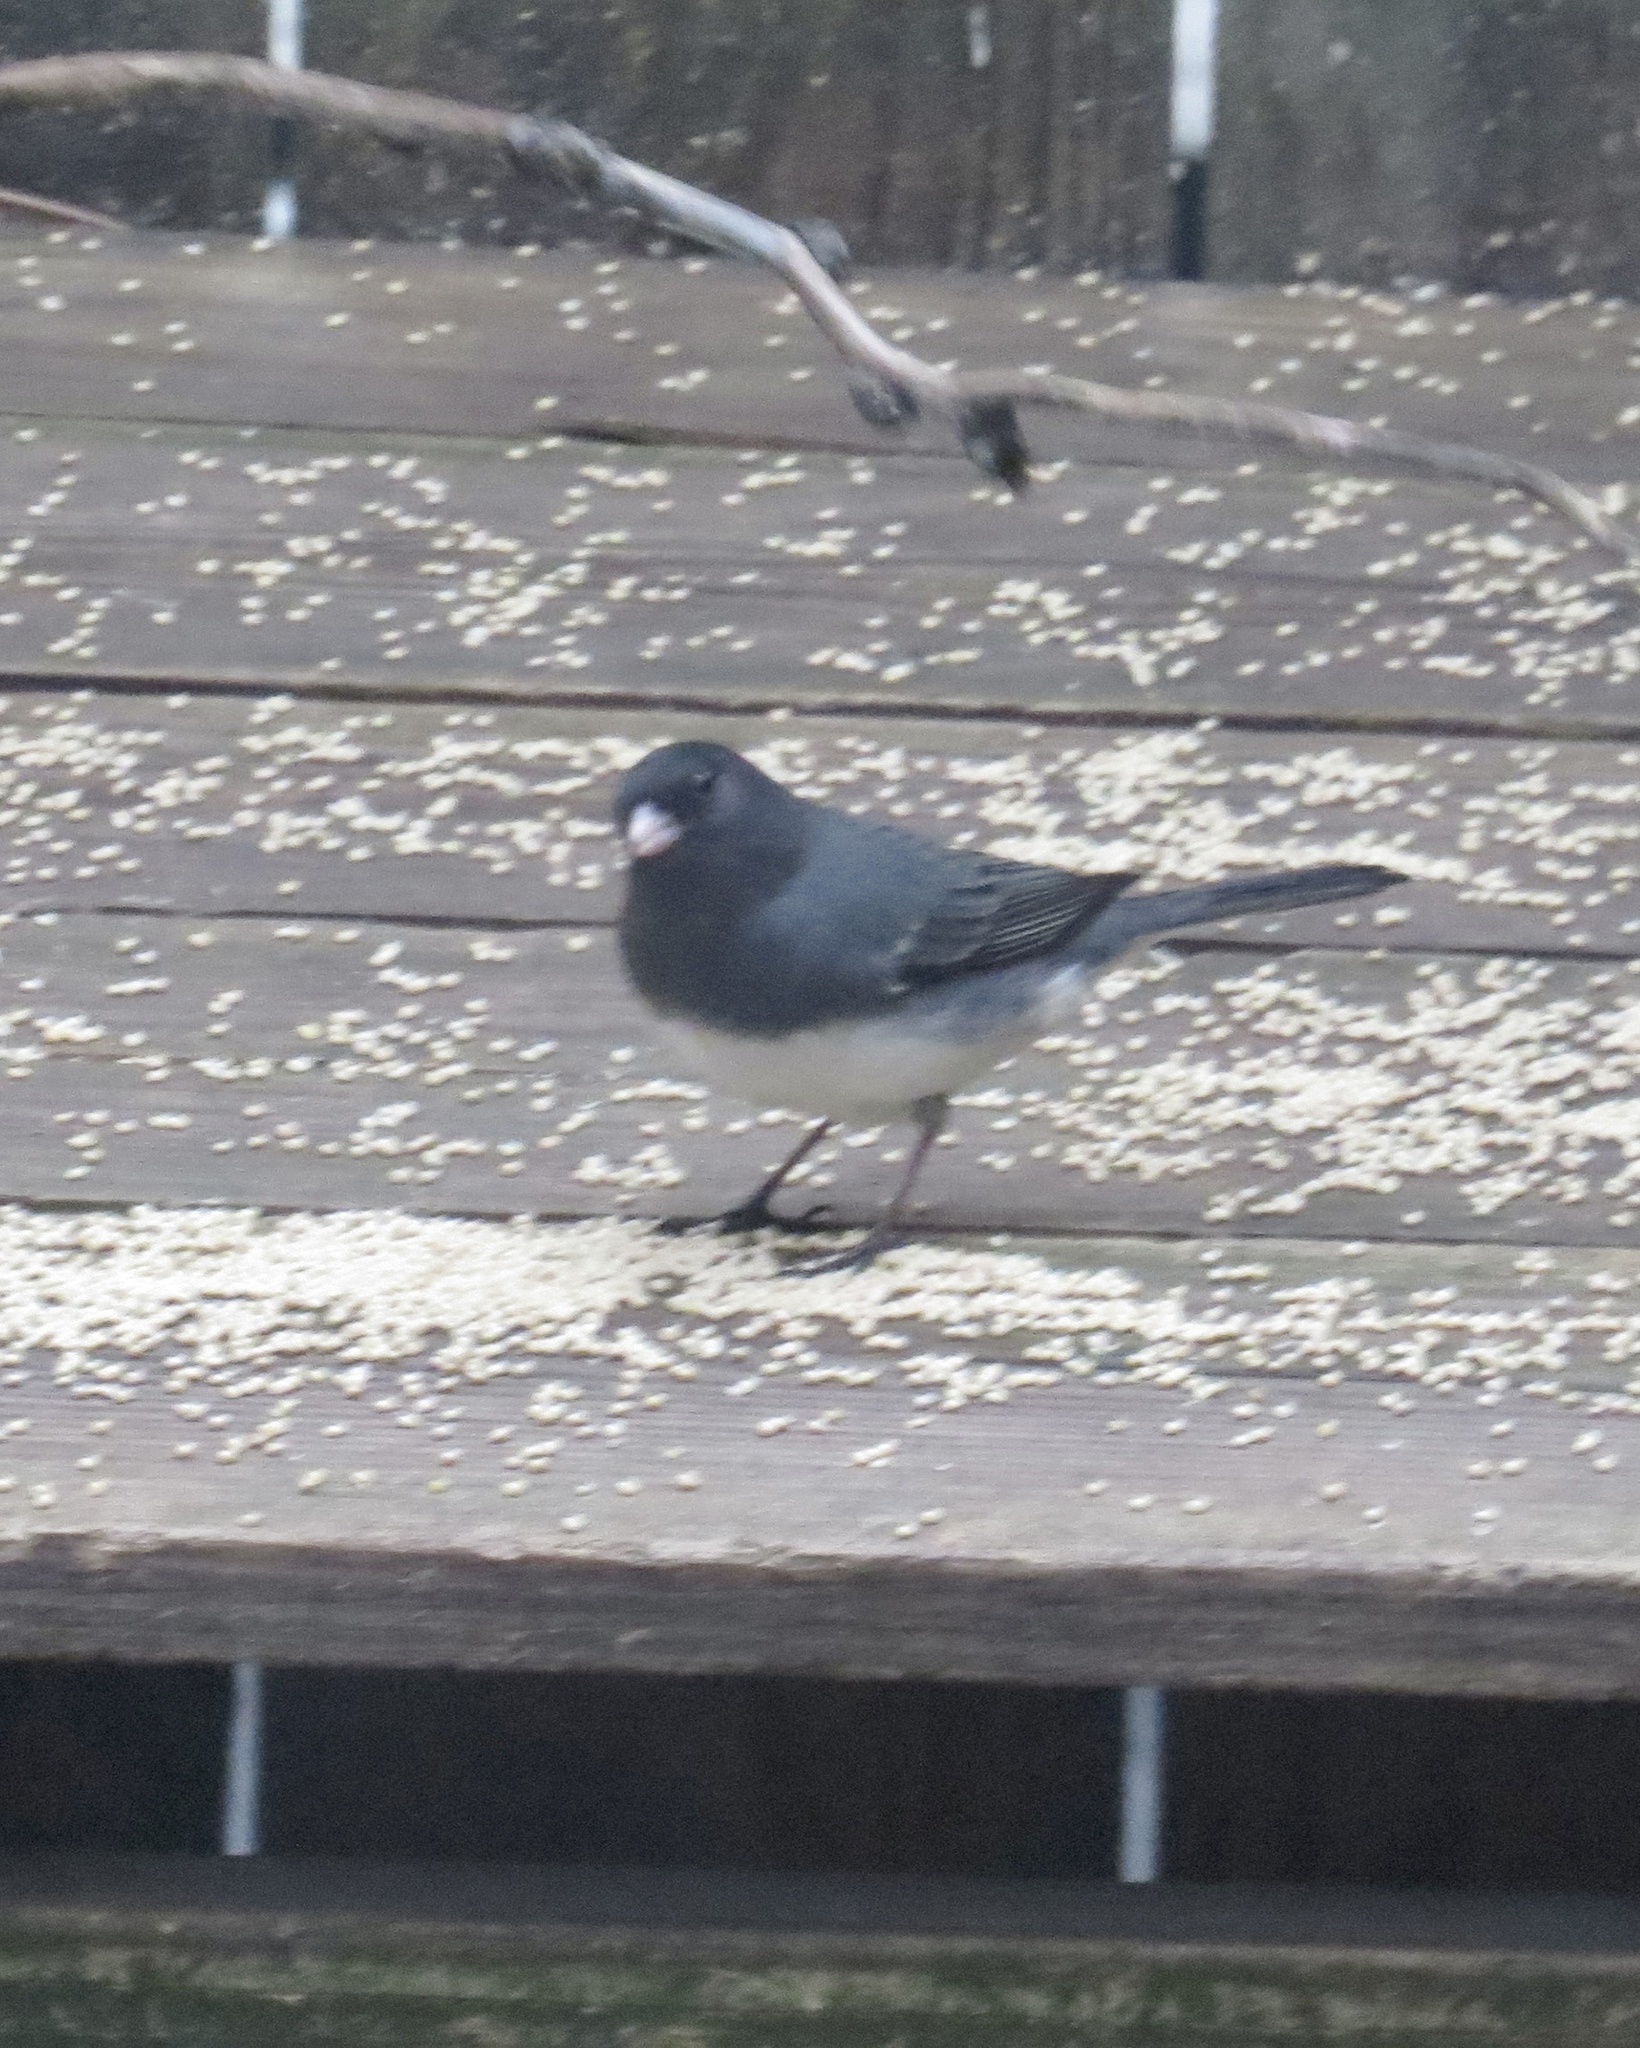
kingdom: Animalia
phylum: Chordata
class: Aves
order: Passeriformes
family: Passerellidae
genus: Junco
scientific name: Junco hyemalis
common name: Dark-eyed junco
